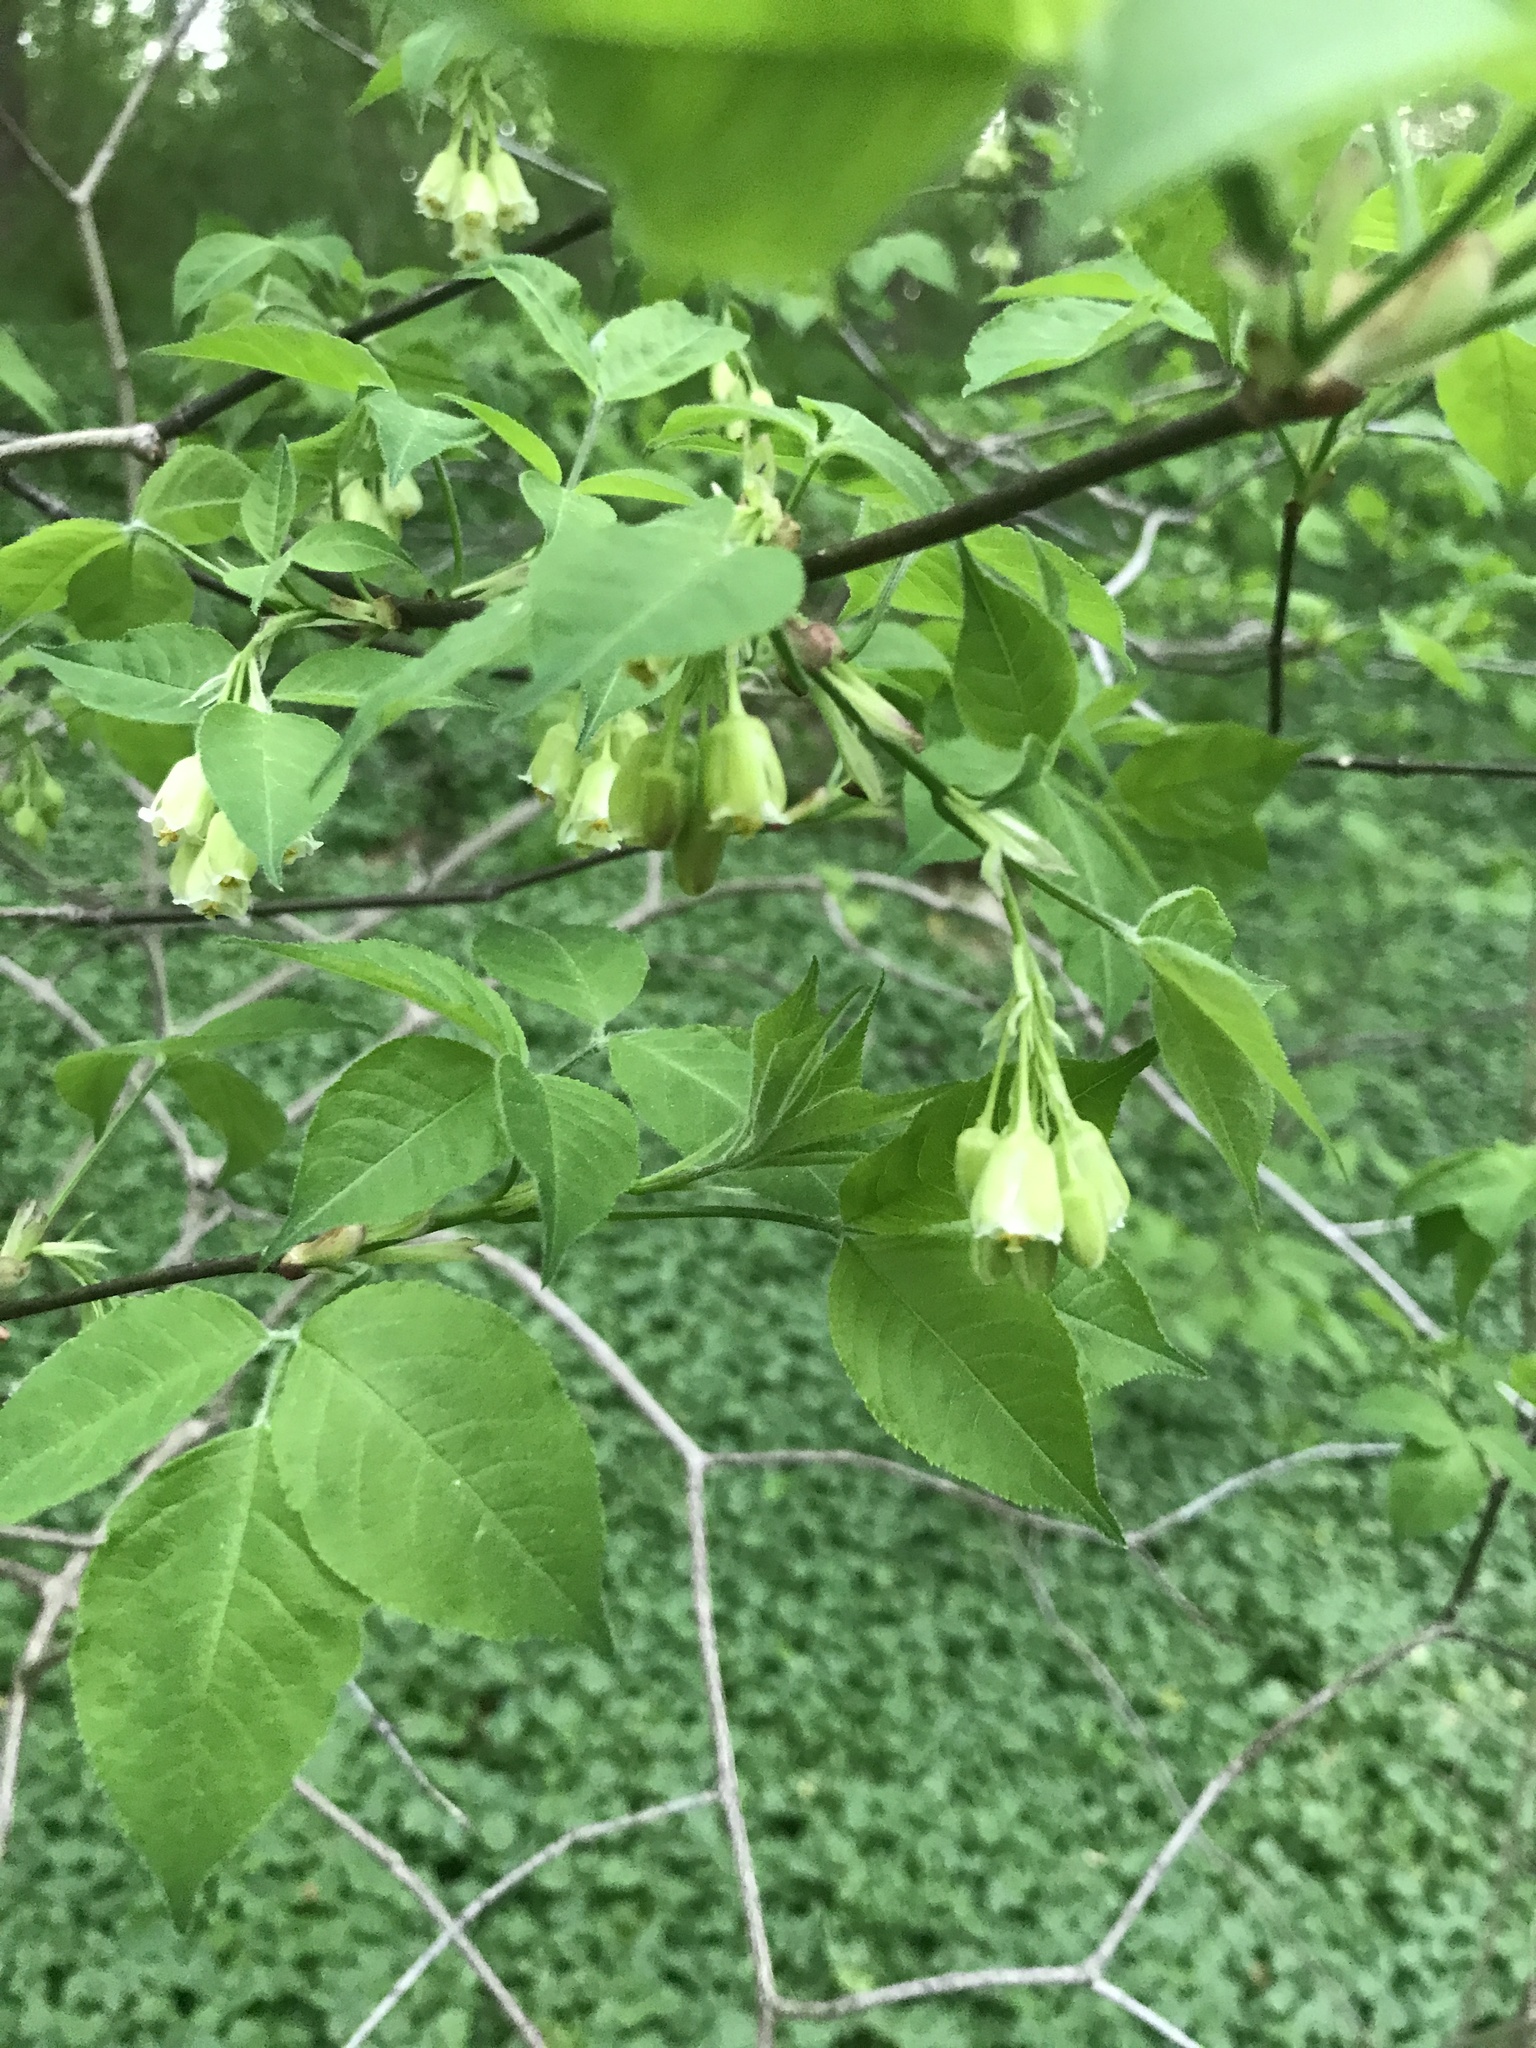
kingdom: Plantae
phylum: Tracheophyta
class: Magnoliopsida
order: Crossosomatales
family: Staphyleaceae
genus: Staphylea
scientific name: Staphylea trifolia
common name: American bladdernut
